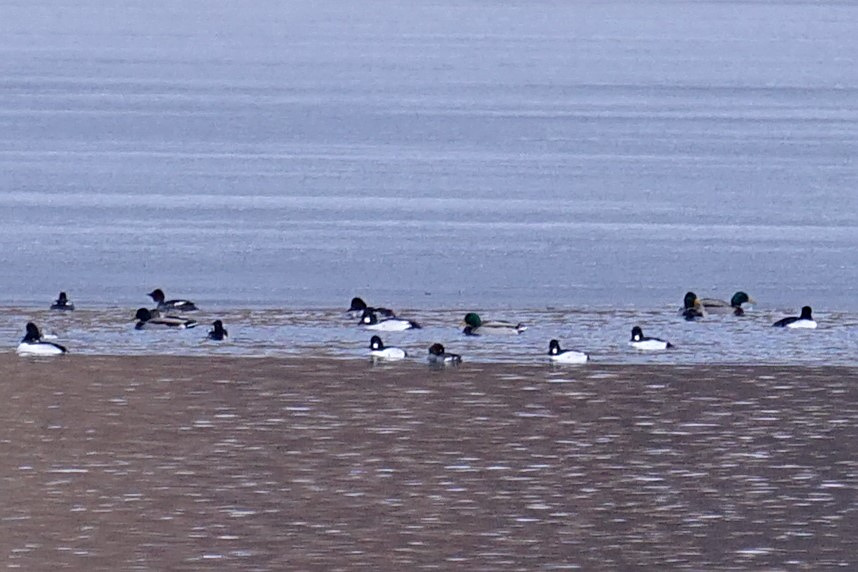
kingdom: Animalia
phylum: Chordata
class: Aves
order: Anseriformes
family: Anatidae
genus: Bucephala
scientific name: Bucephala clangula
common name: Common goldeneye
